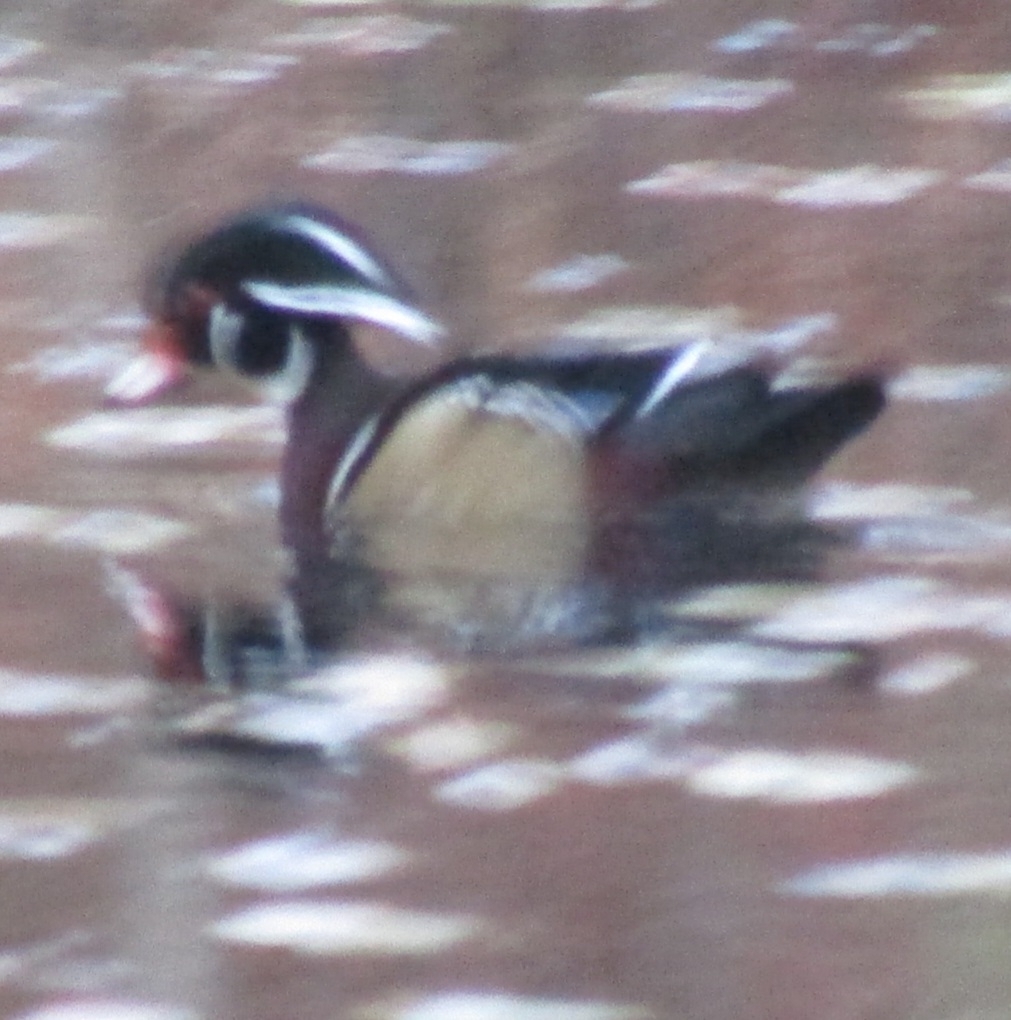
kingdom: Animalia
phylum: Chordata
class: Aves
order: Anseriformes
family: Anatidae
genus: Aix
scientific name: Aix sponsa
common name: Wood duck
